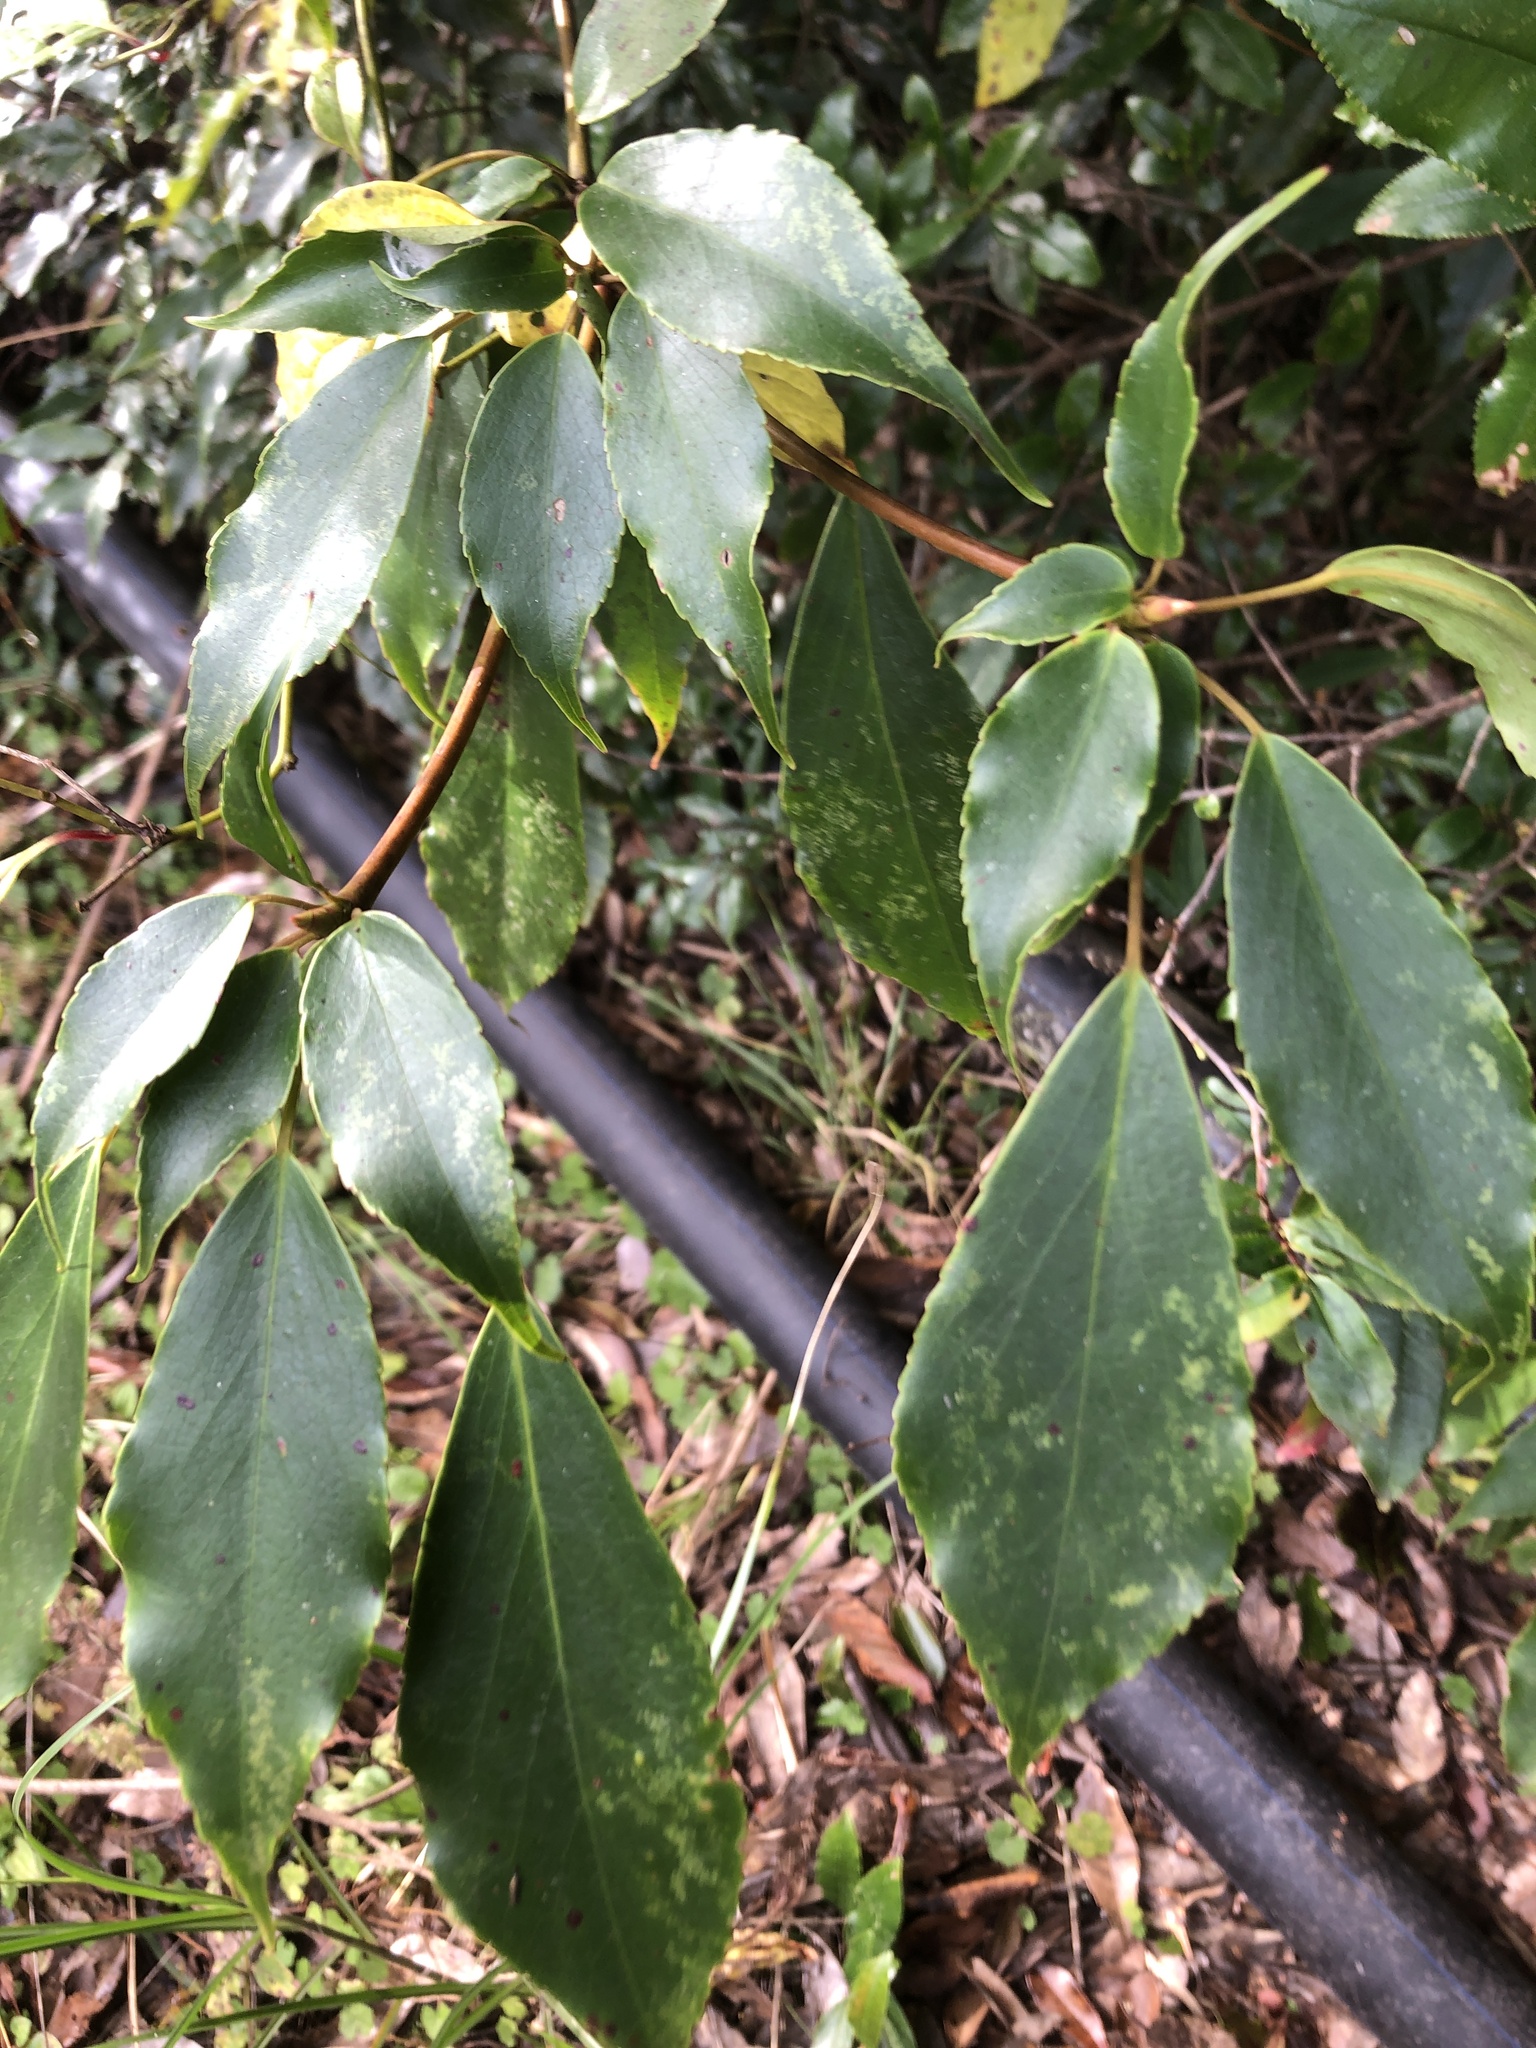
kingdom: Plantae
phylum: Tracheophyta
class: Magnoliopsida
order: Trochodendrales
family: Trochodendraceae
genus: Trochodendron
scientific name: Trochodendron aralioides
